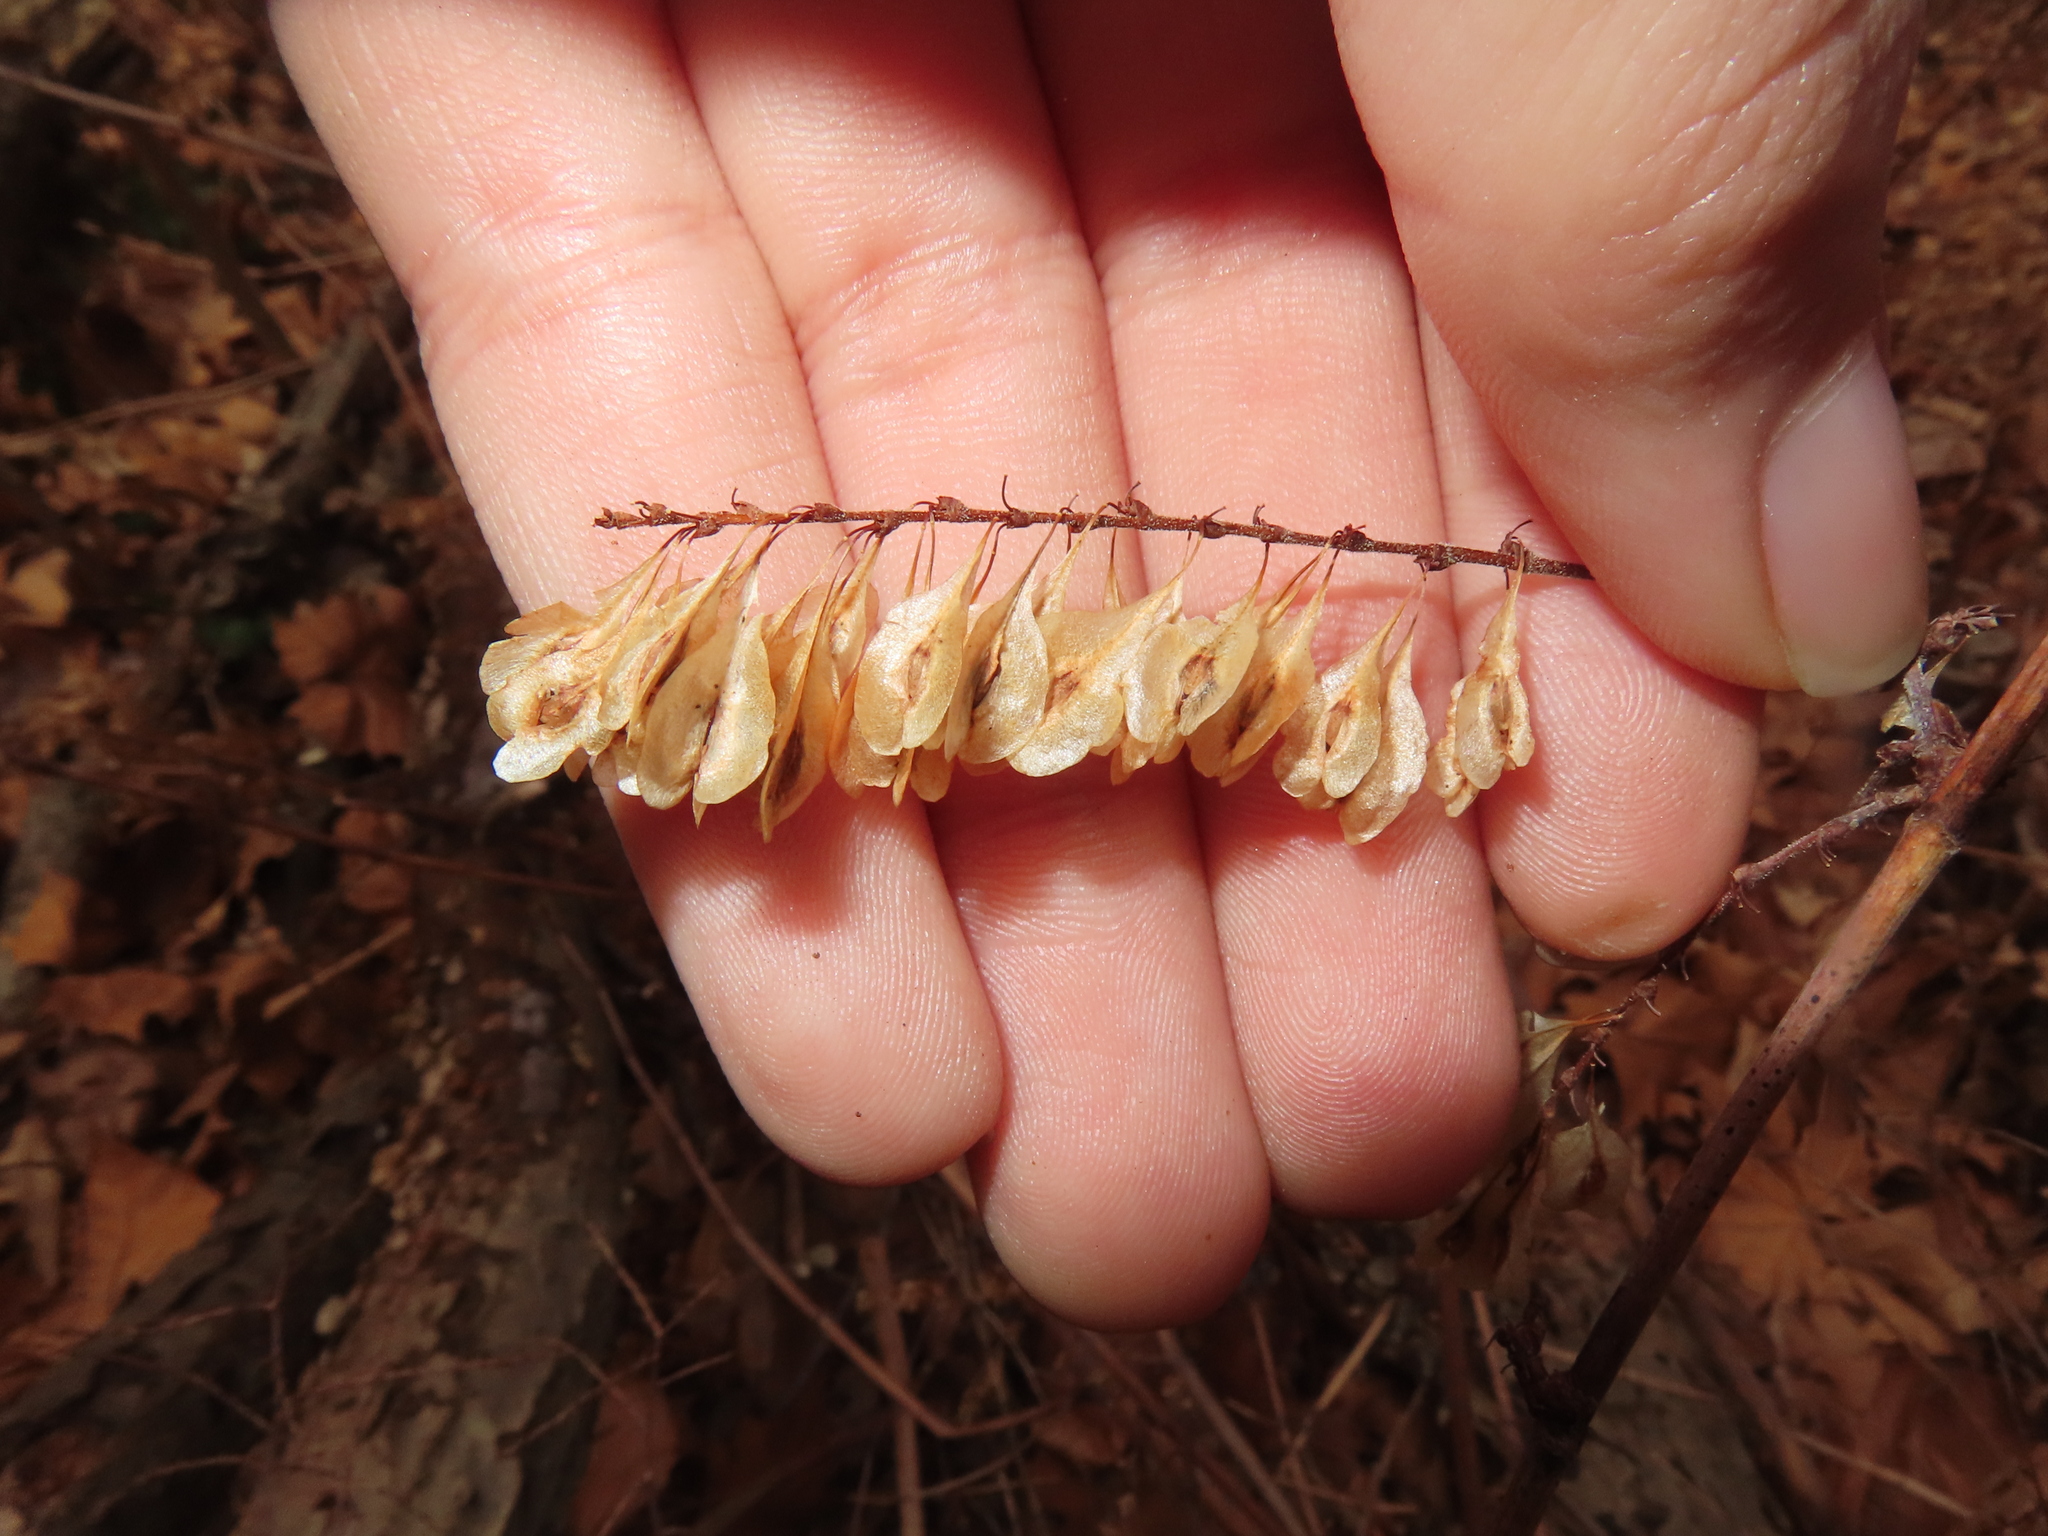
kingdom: Plantae
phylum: Tracheophyta
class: Magnoliopsida
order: Caryophyllales
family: Polygonaceae
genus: Reynoutria
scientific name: Reynoutria japonica
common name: Japanese knotweed
